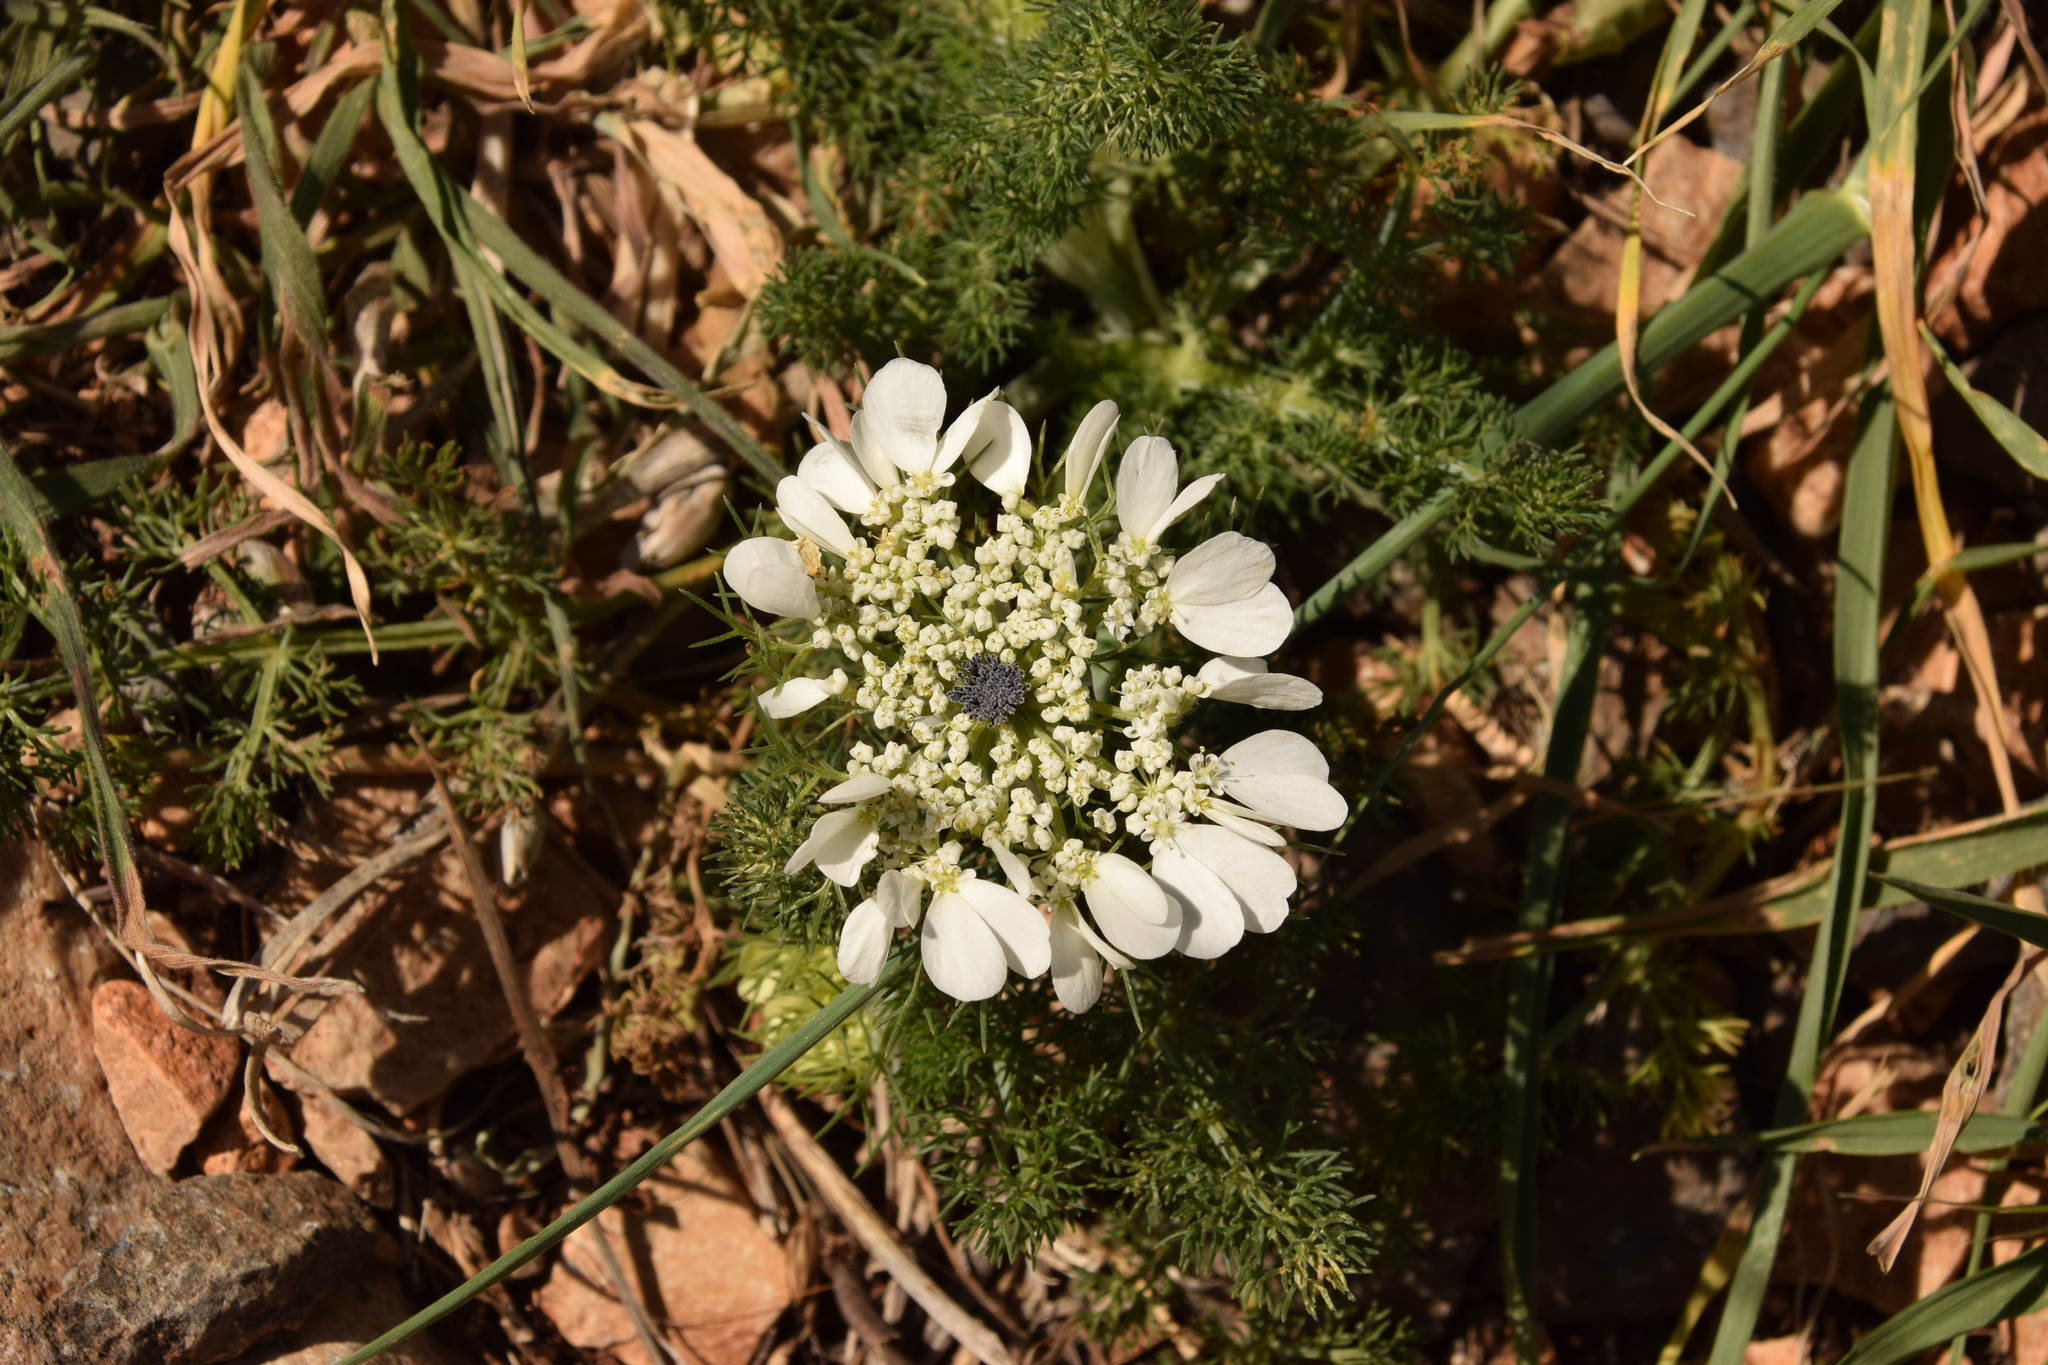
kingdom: Plantae
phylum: Tracheophyta
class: Magnoliopsida
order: Apiales
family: Apiaceae
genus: Artedia
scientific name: Artedia squamata
